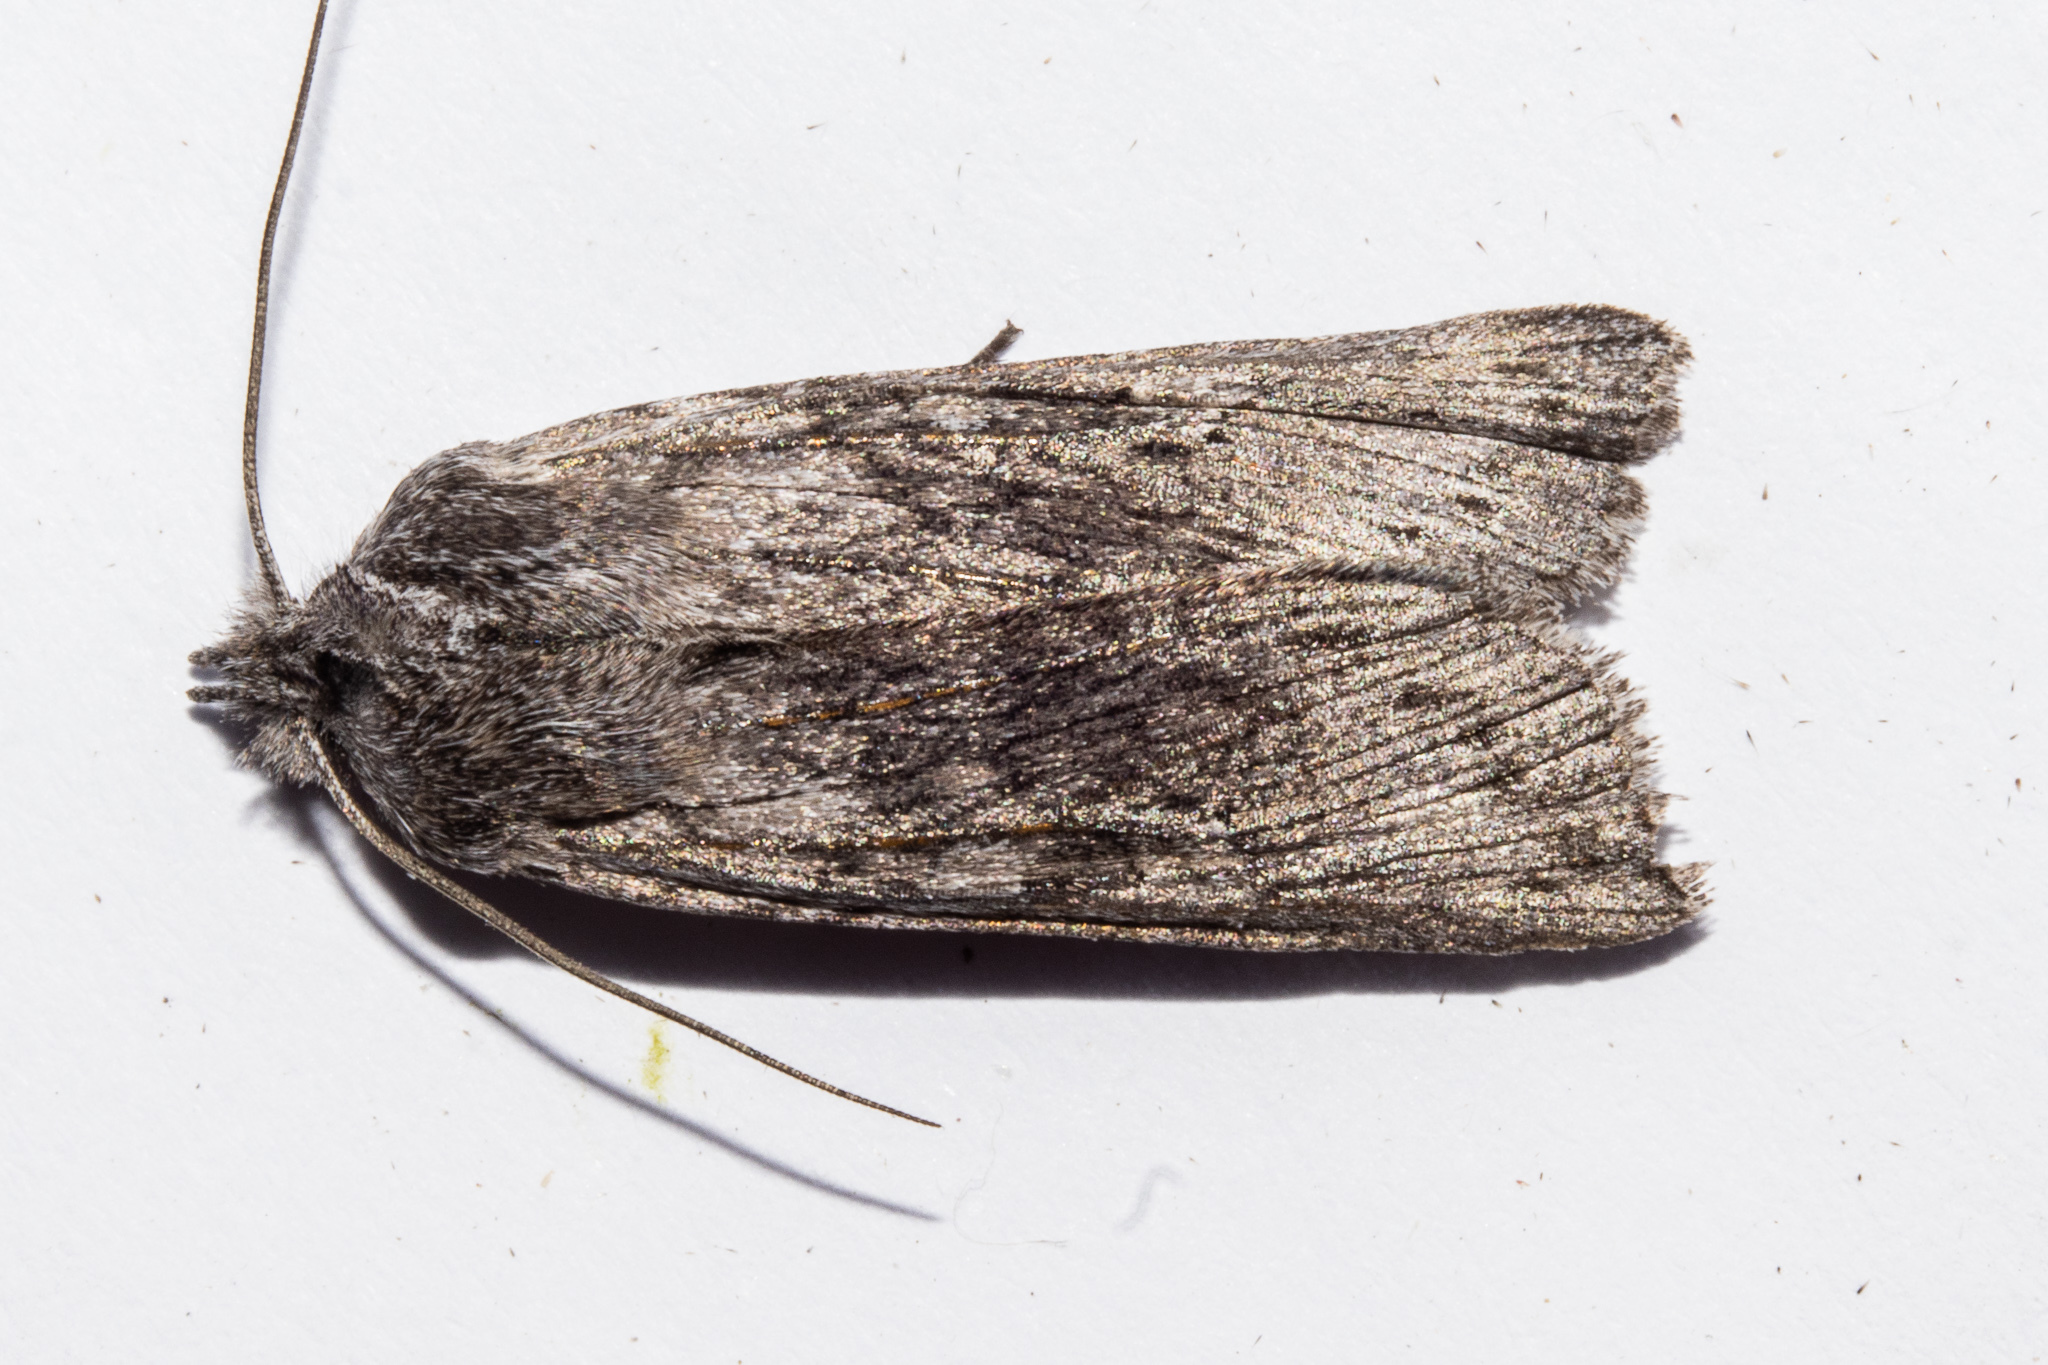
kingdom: Animalia
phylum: Arthropoda
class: Insecta
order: Lepidoptera
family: Noctuidae
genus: Physetica
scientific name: Physetica phricias
